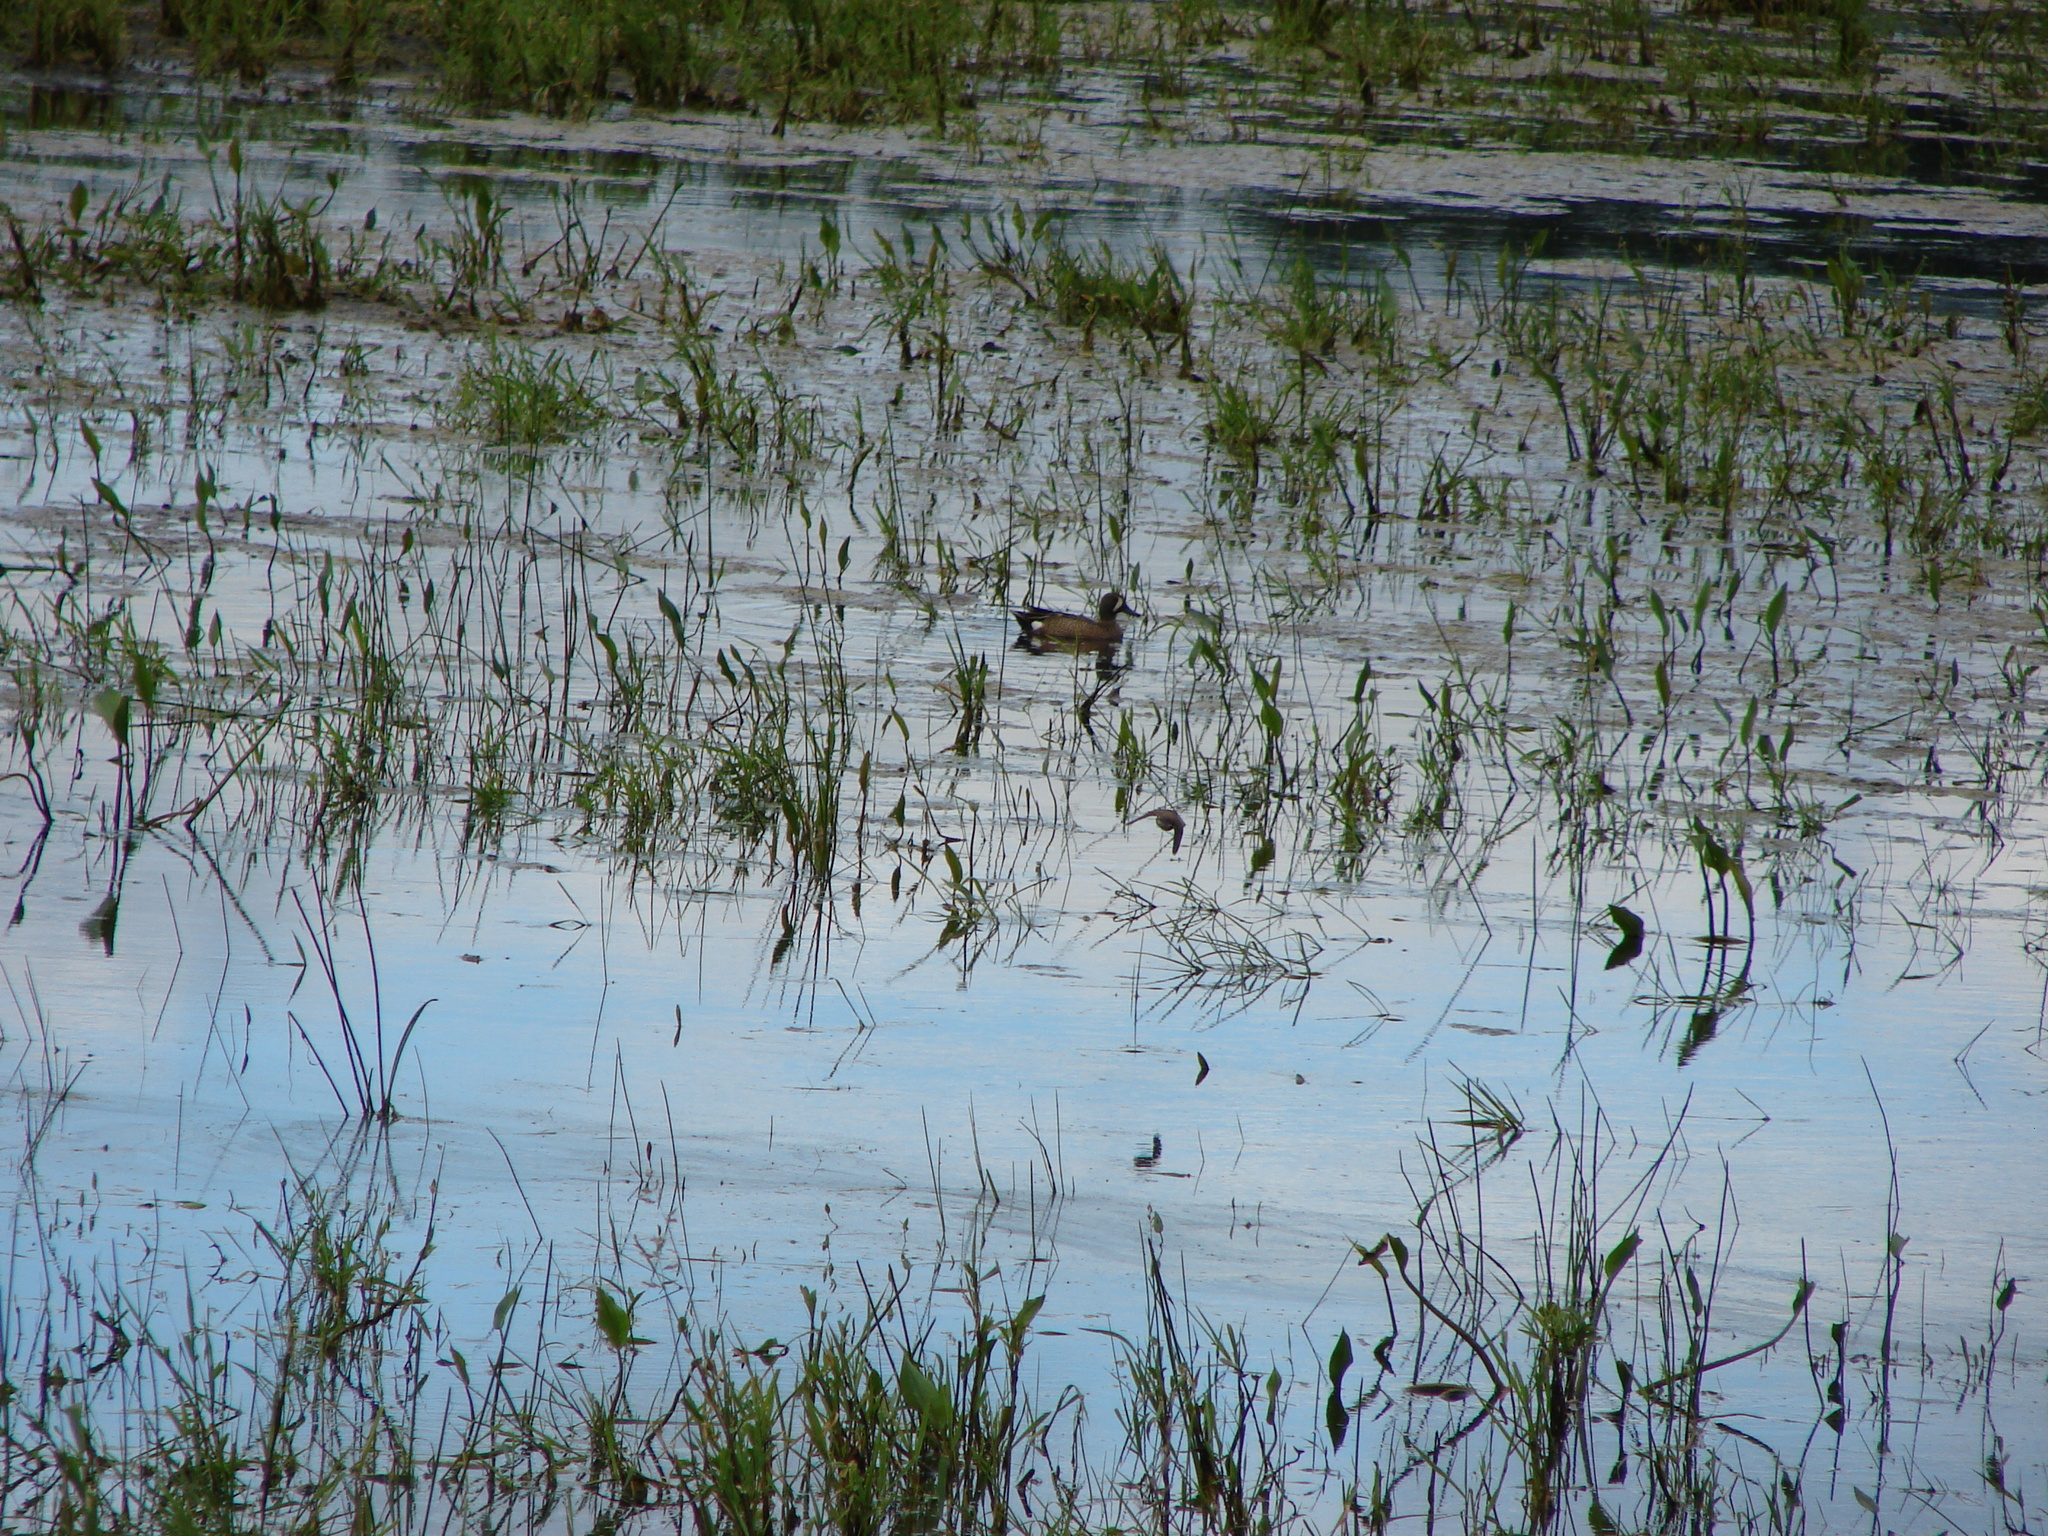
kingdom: Animalia
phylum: Chordata
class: Aves
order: Anseriformes
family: Anatidae
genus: Spatula
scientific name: Spatula discors
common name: Blue-winged teal
